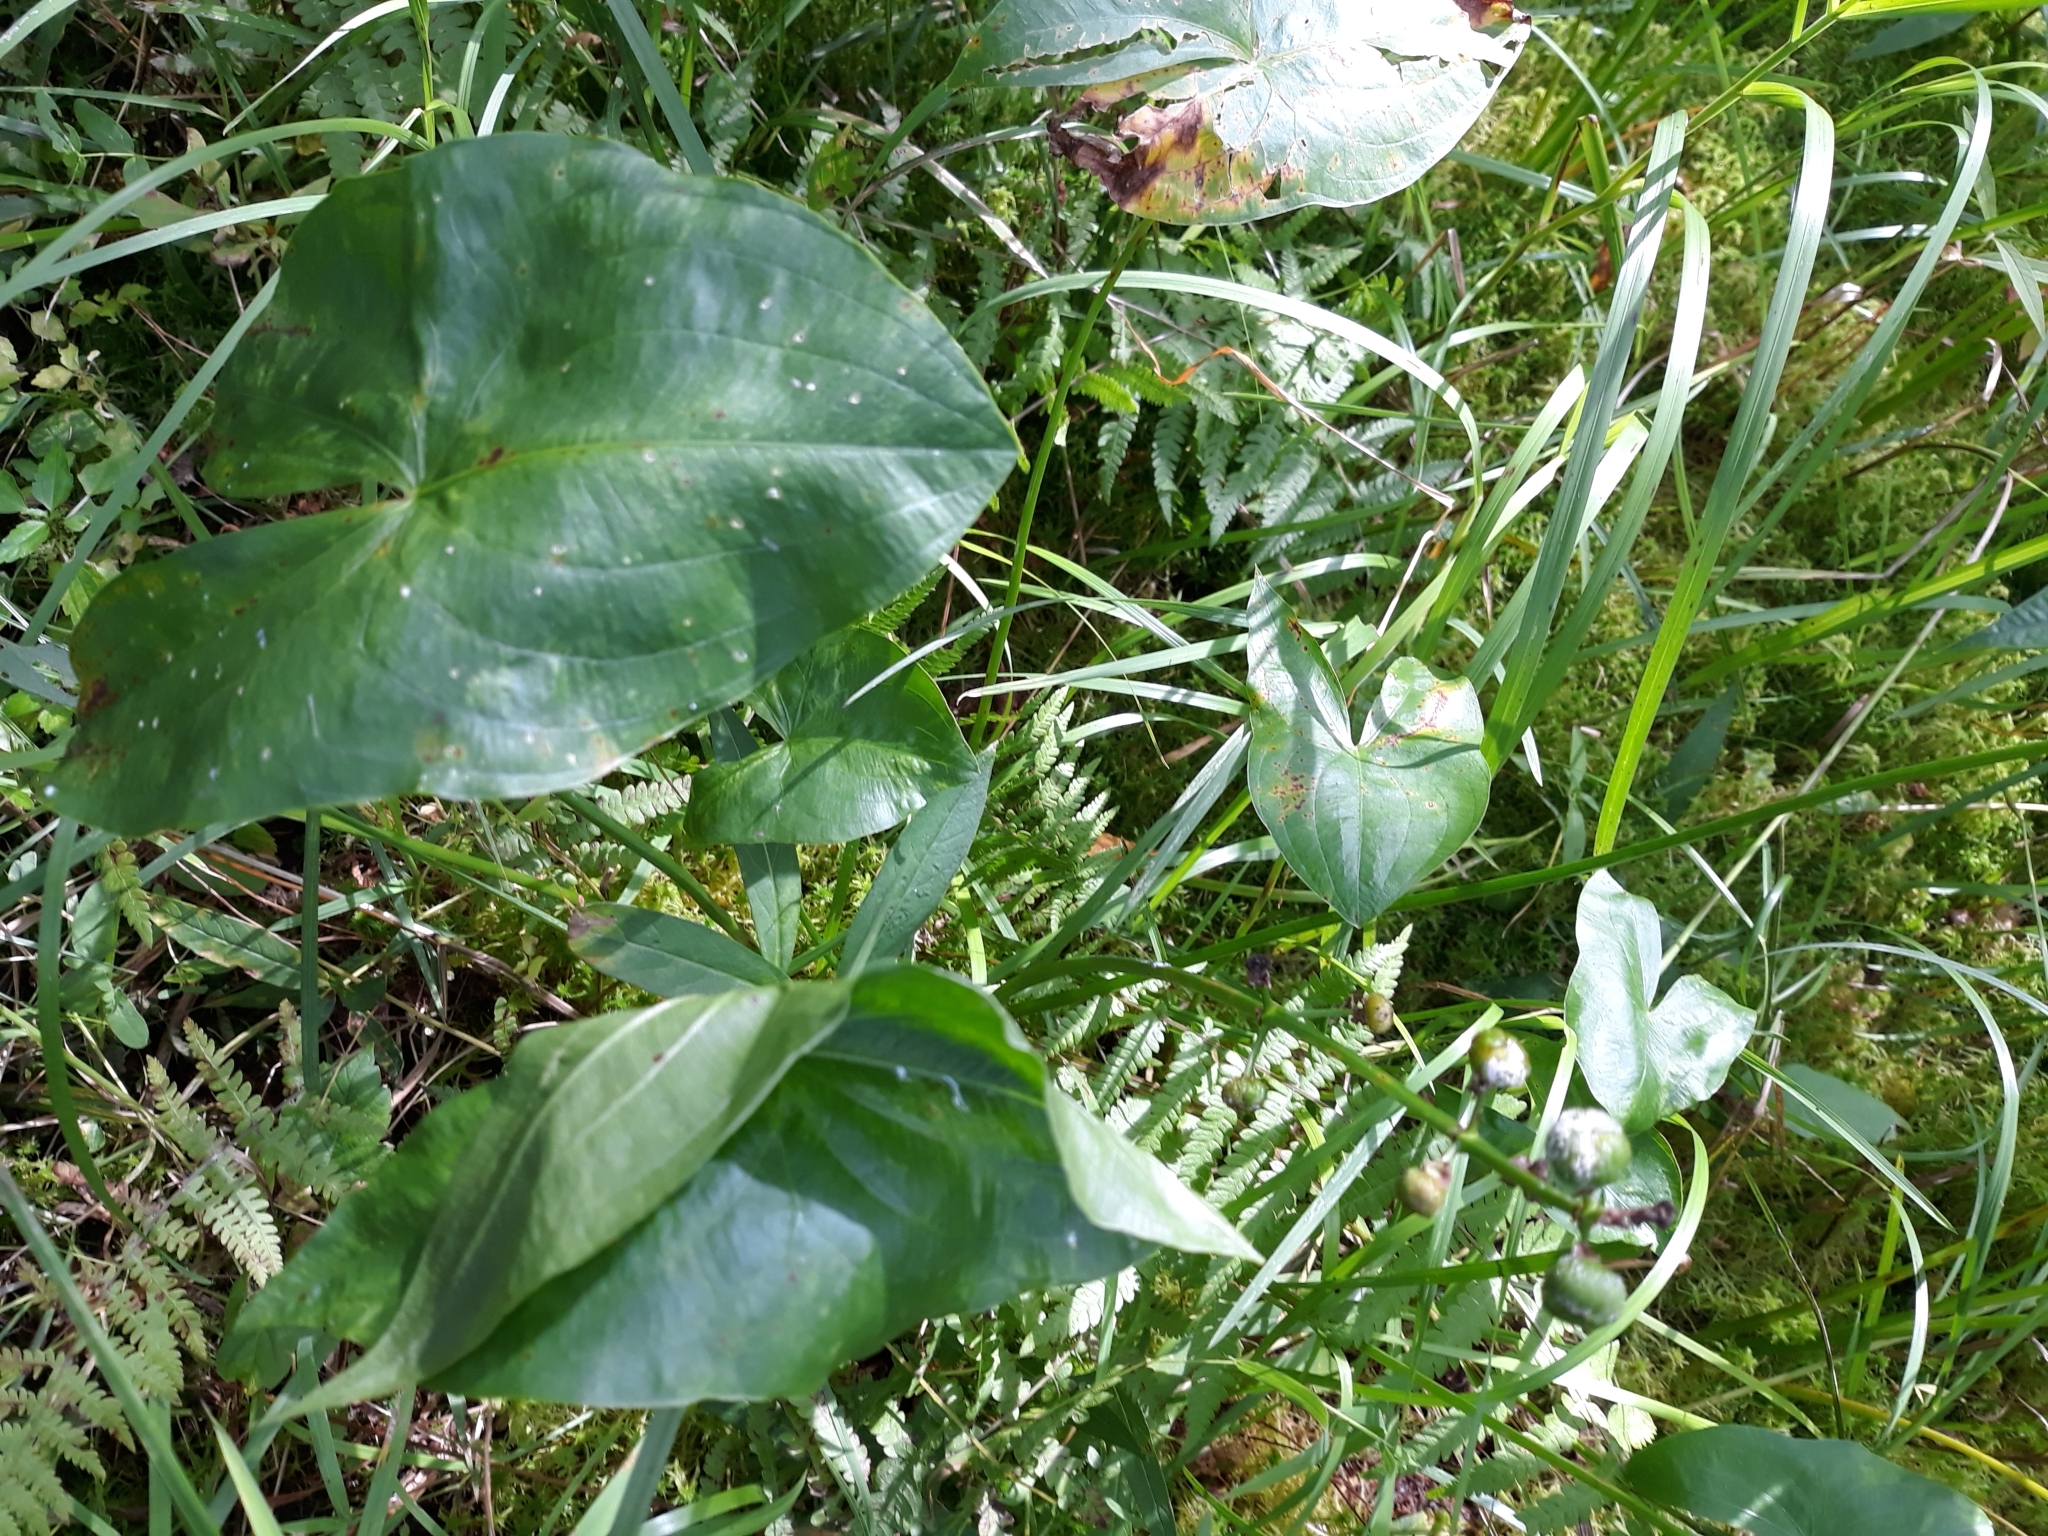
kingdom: Plantae
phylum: Tracheophyta
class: Liliopsida
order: Alismatales
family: Alismataceae
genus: Sagittaria
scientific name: Sagittaria latifolia
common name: Duck-potato
